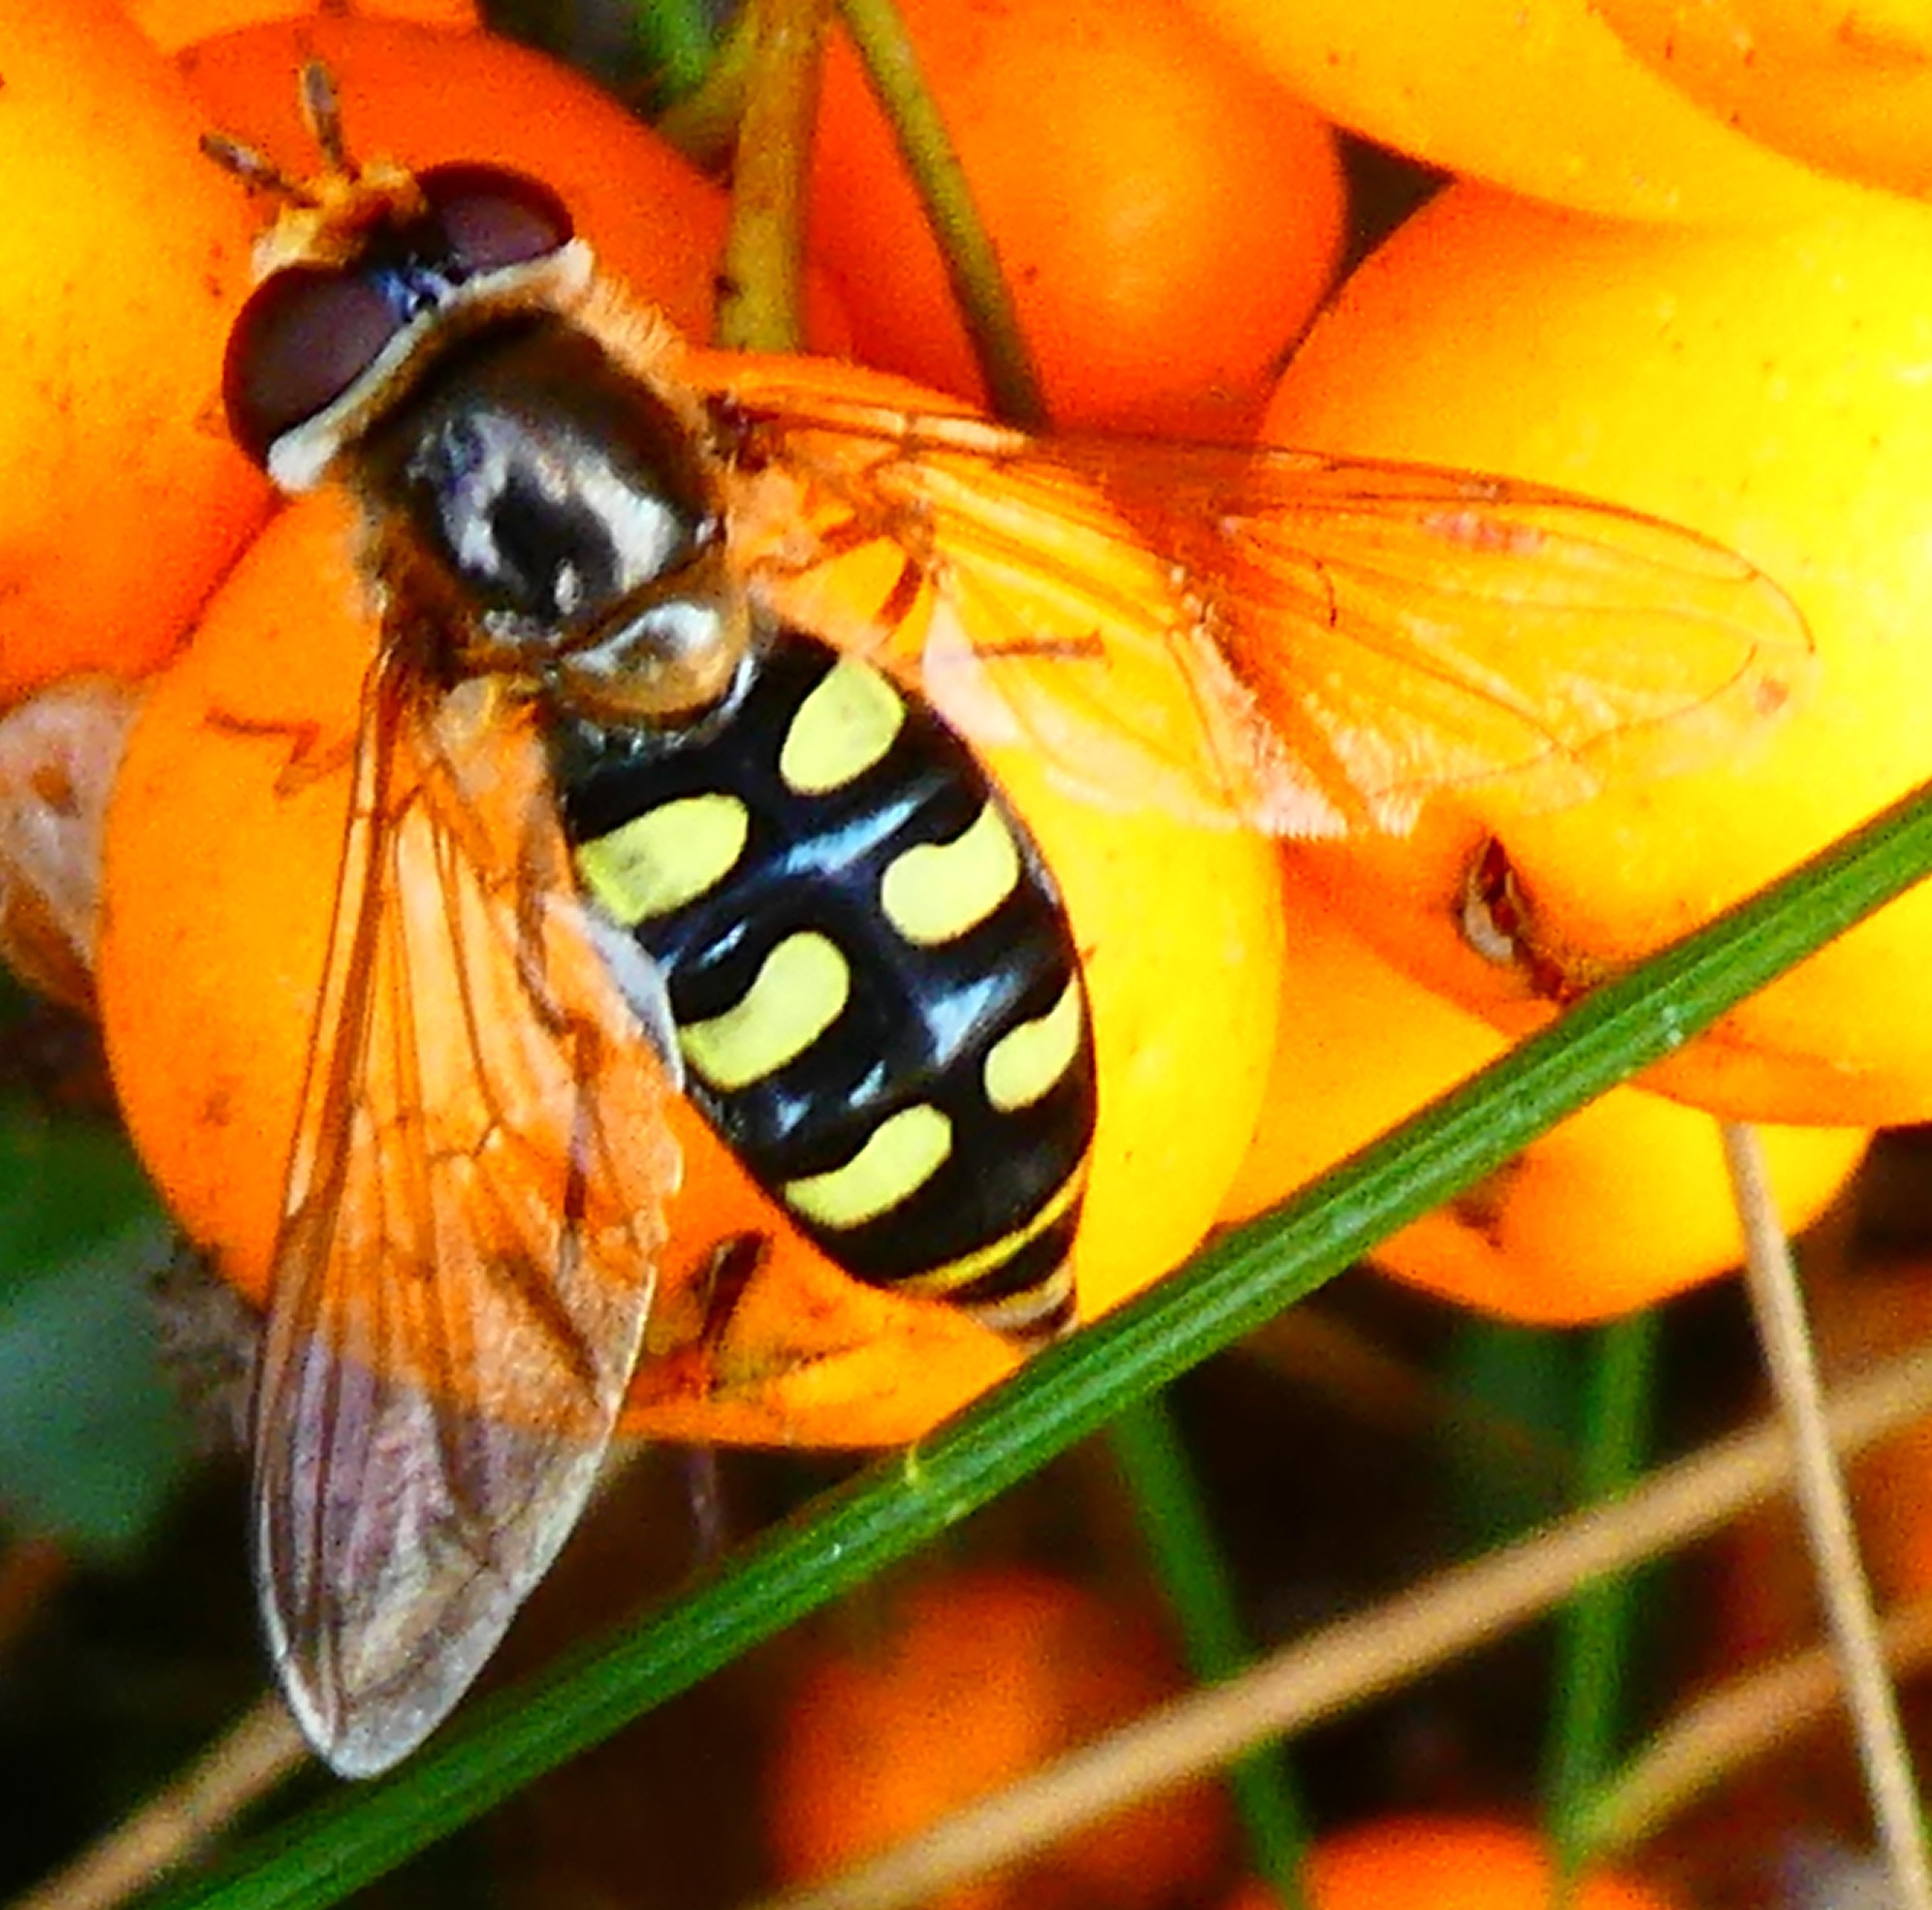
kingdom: Animalia
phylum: Arthropoda
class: Insecta
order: Diptera
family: Syrphidae
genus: Eupeodes
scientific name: Eupeodes
